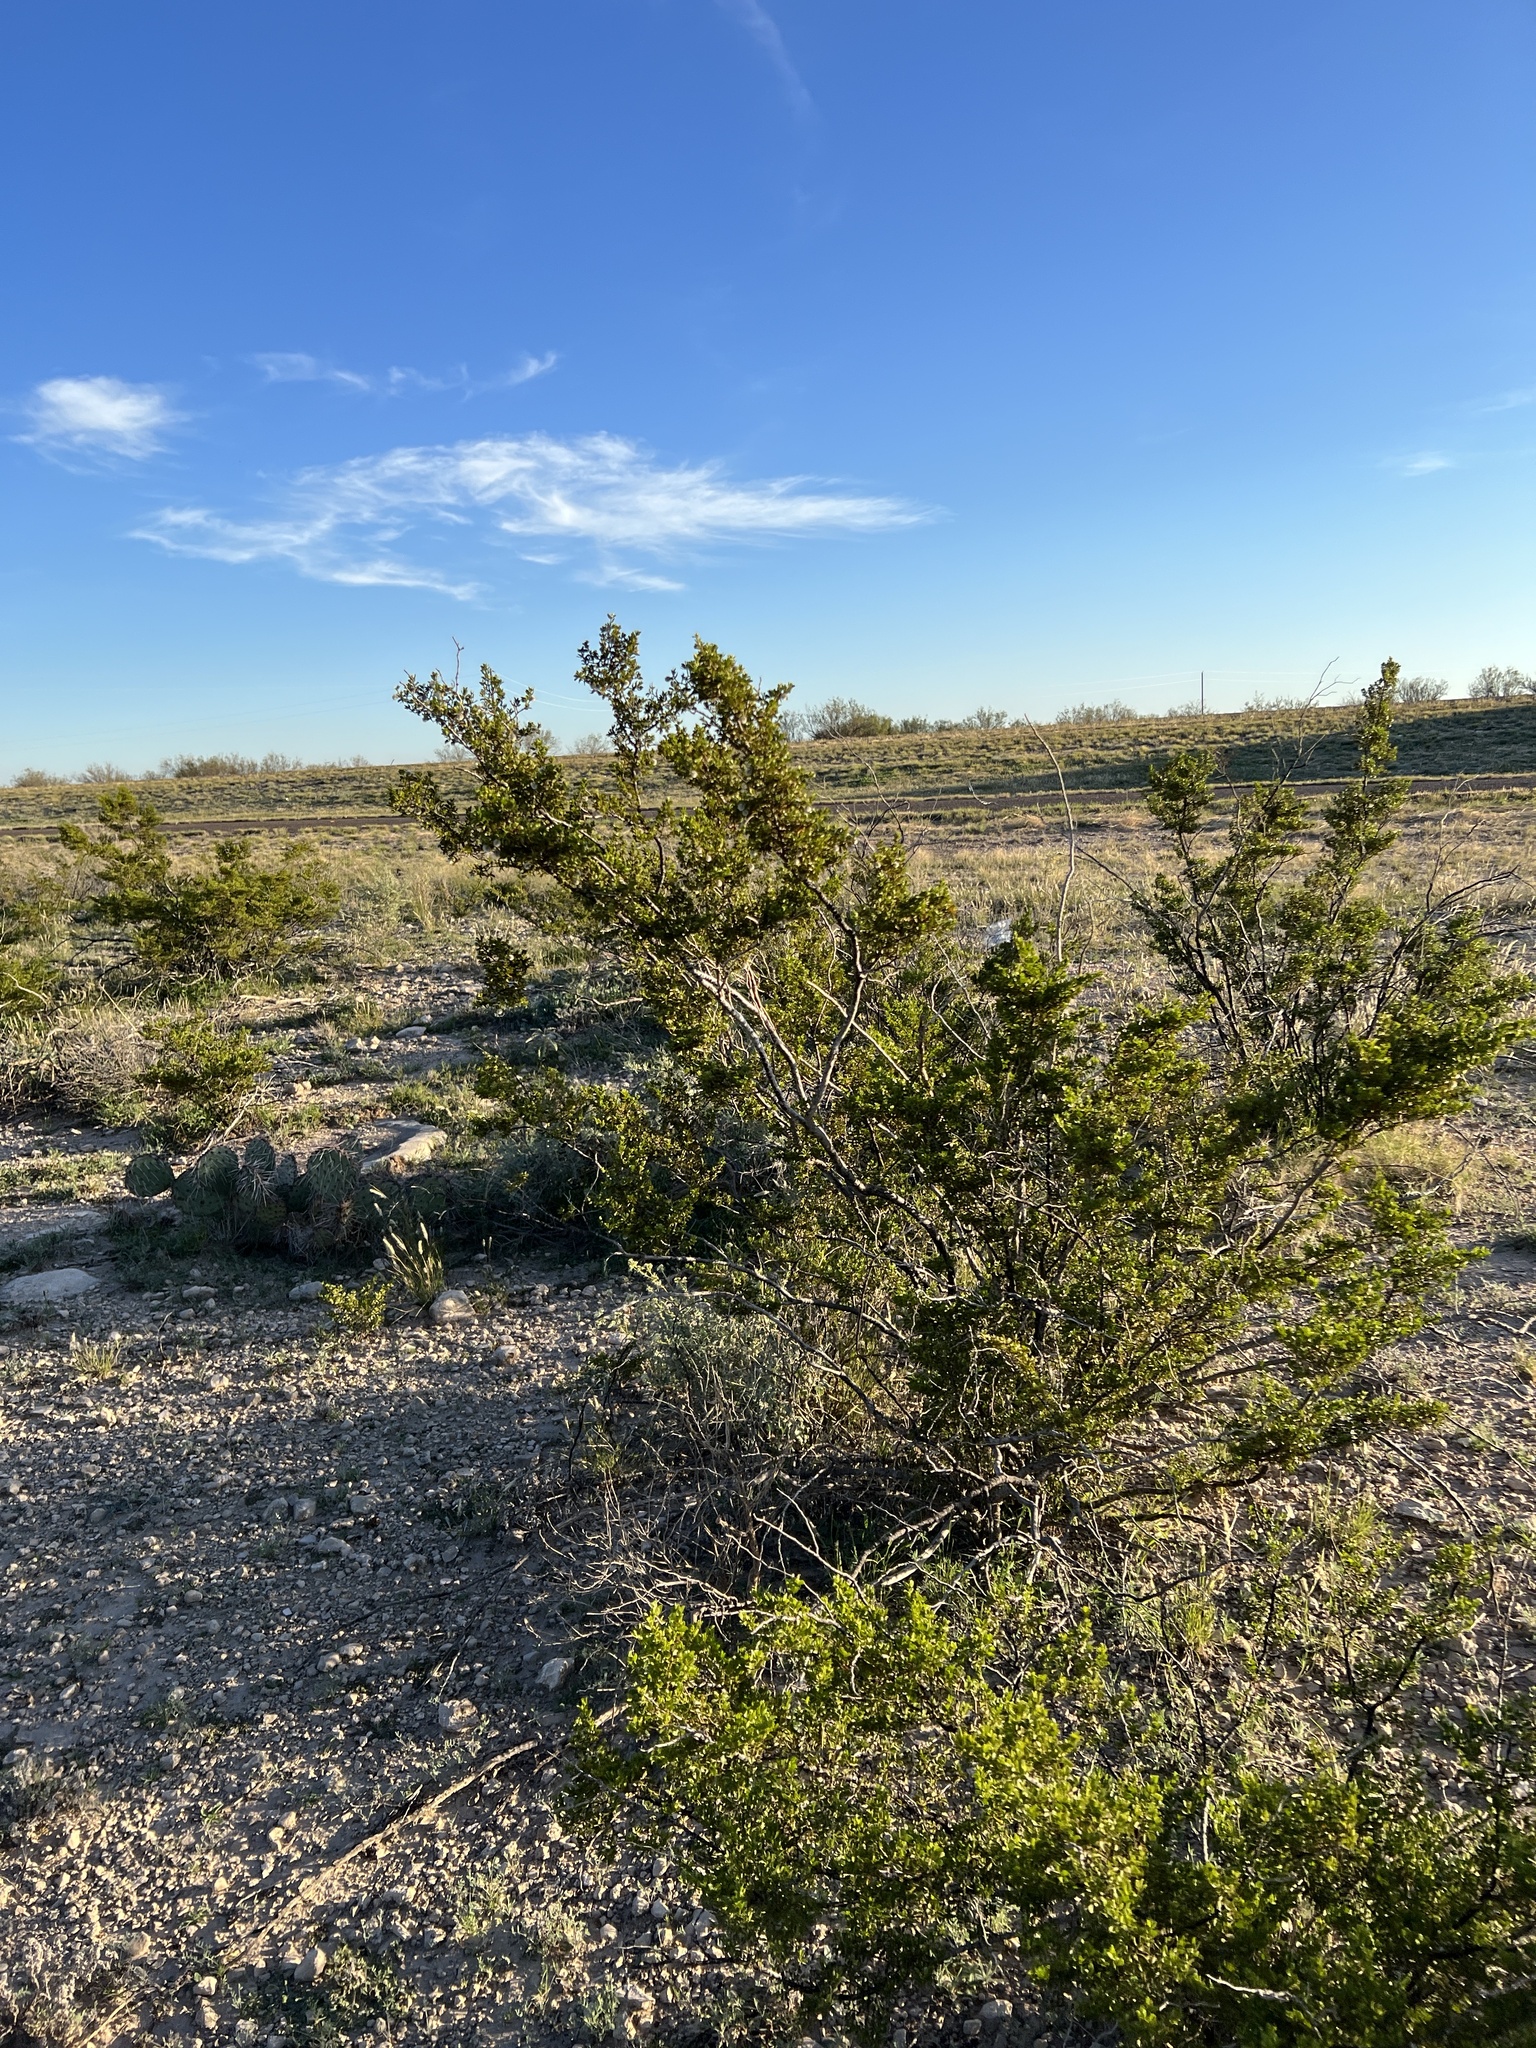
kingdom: Plantae
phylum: Tracheophyta
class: Magnoliopsida
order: Zygophyllales
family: Zygophyllaceae
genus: Larrea
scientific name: Larrea tridentata
